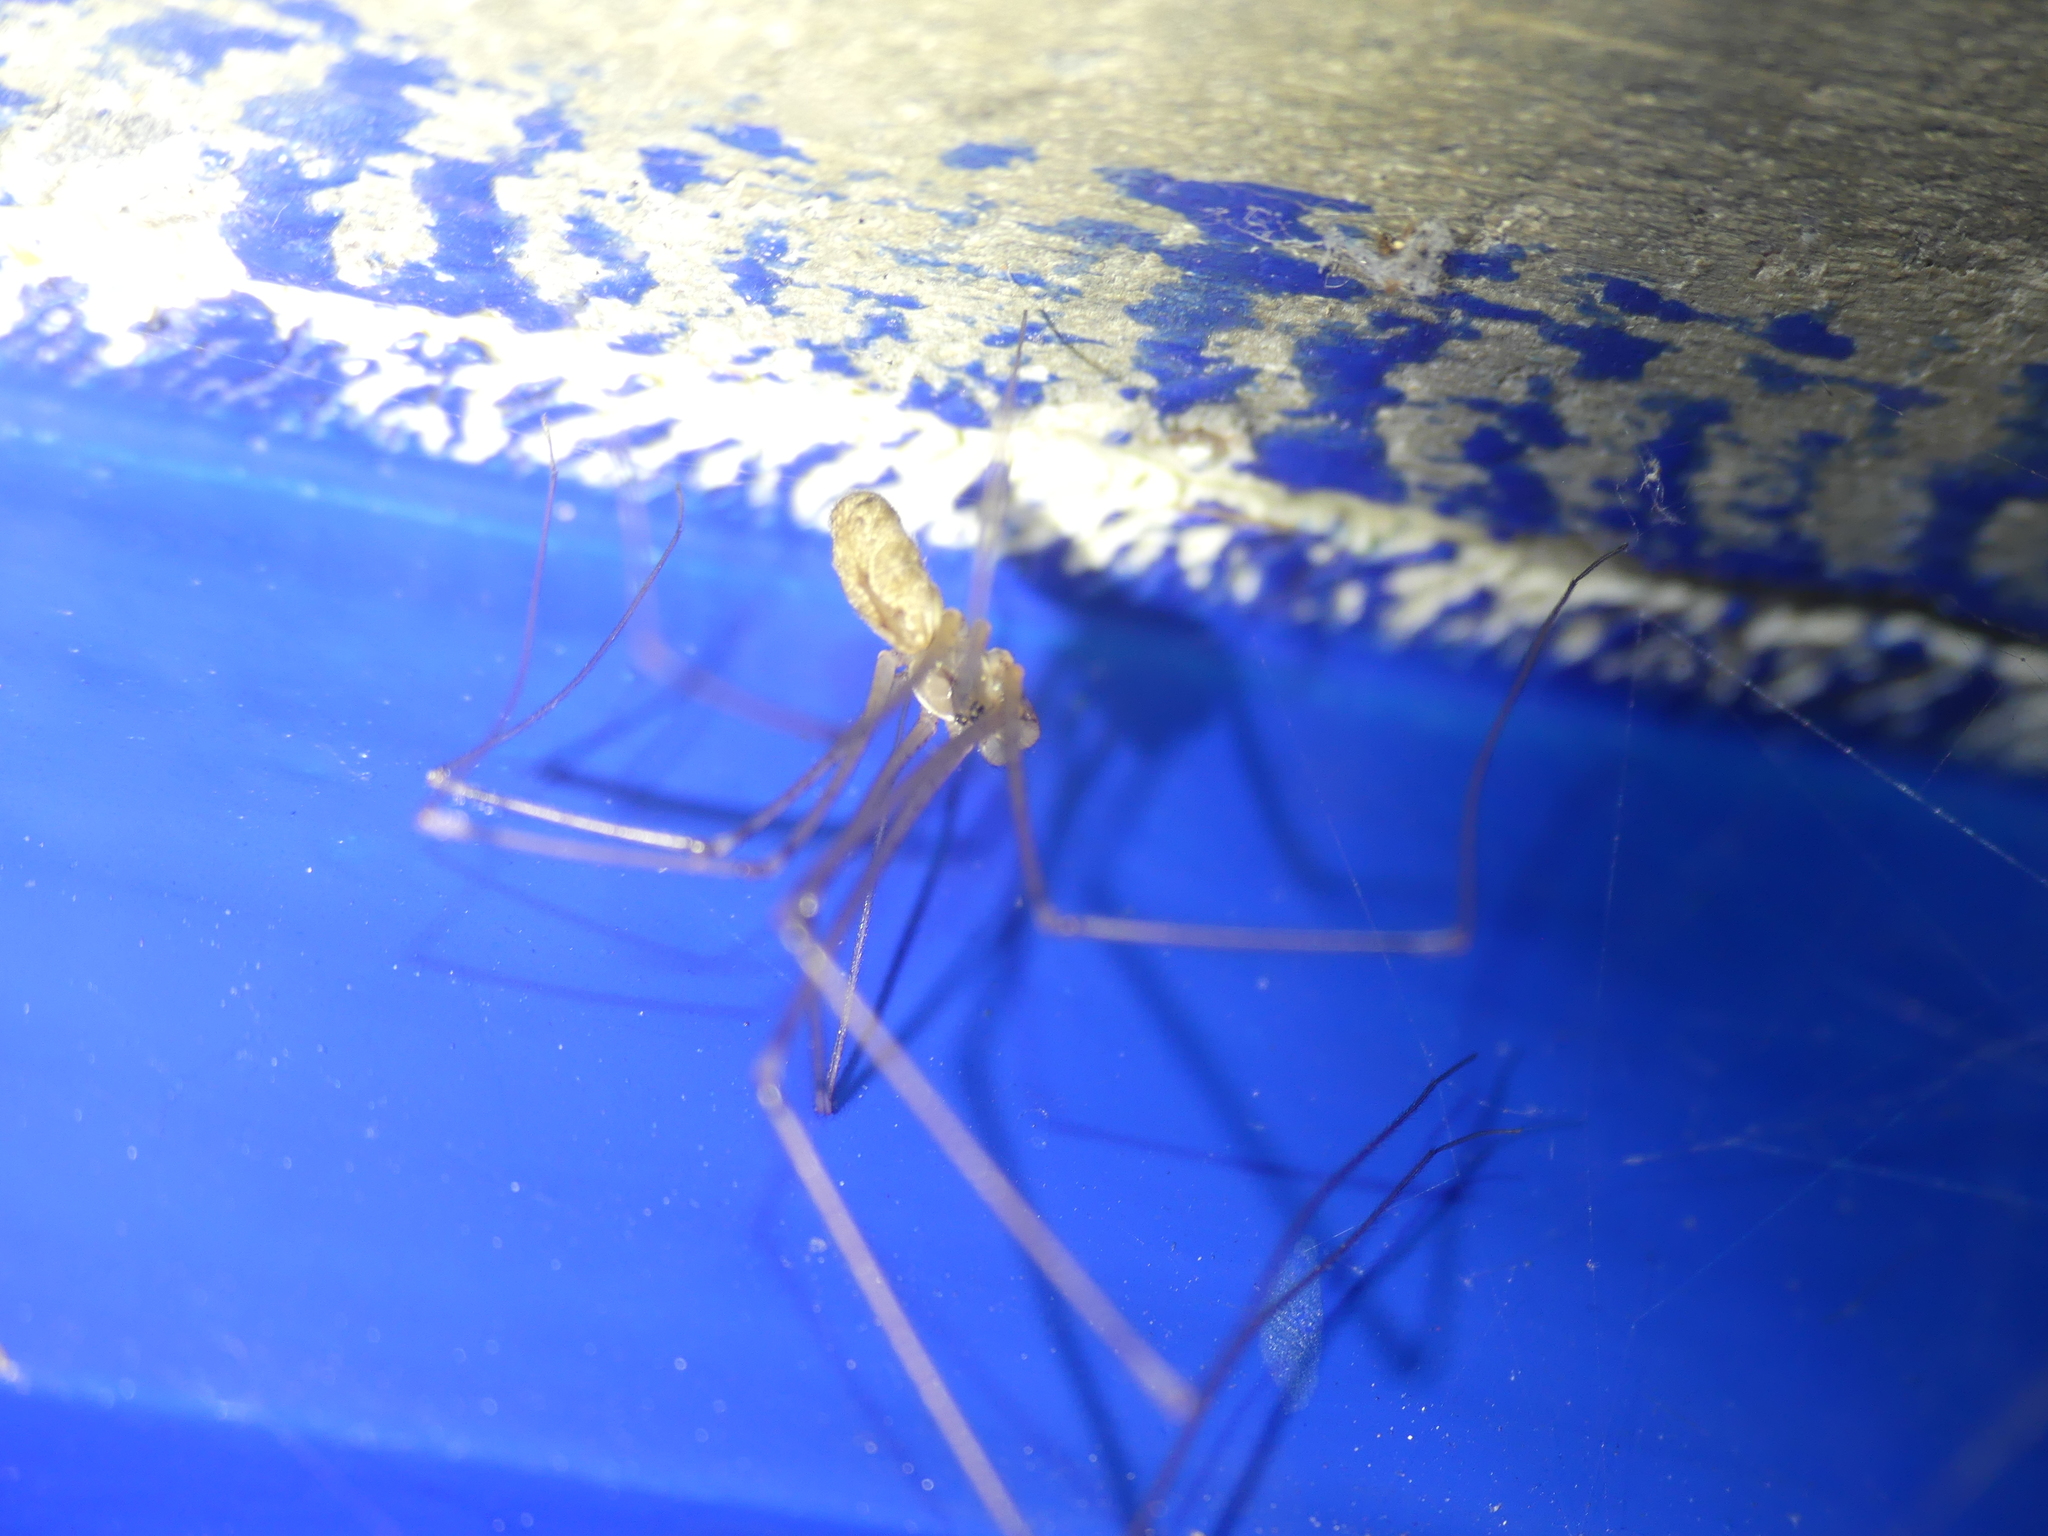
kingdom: Animalia
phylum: Arthropoda
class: Arachnida
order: Araneae
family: Pholcidae
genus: Holocnemus
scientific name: Holocnemus pluchei
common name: Marbled cellar spider
